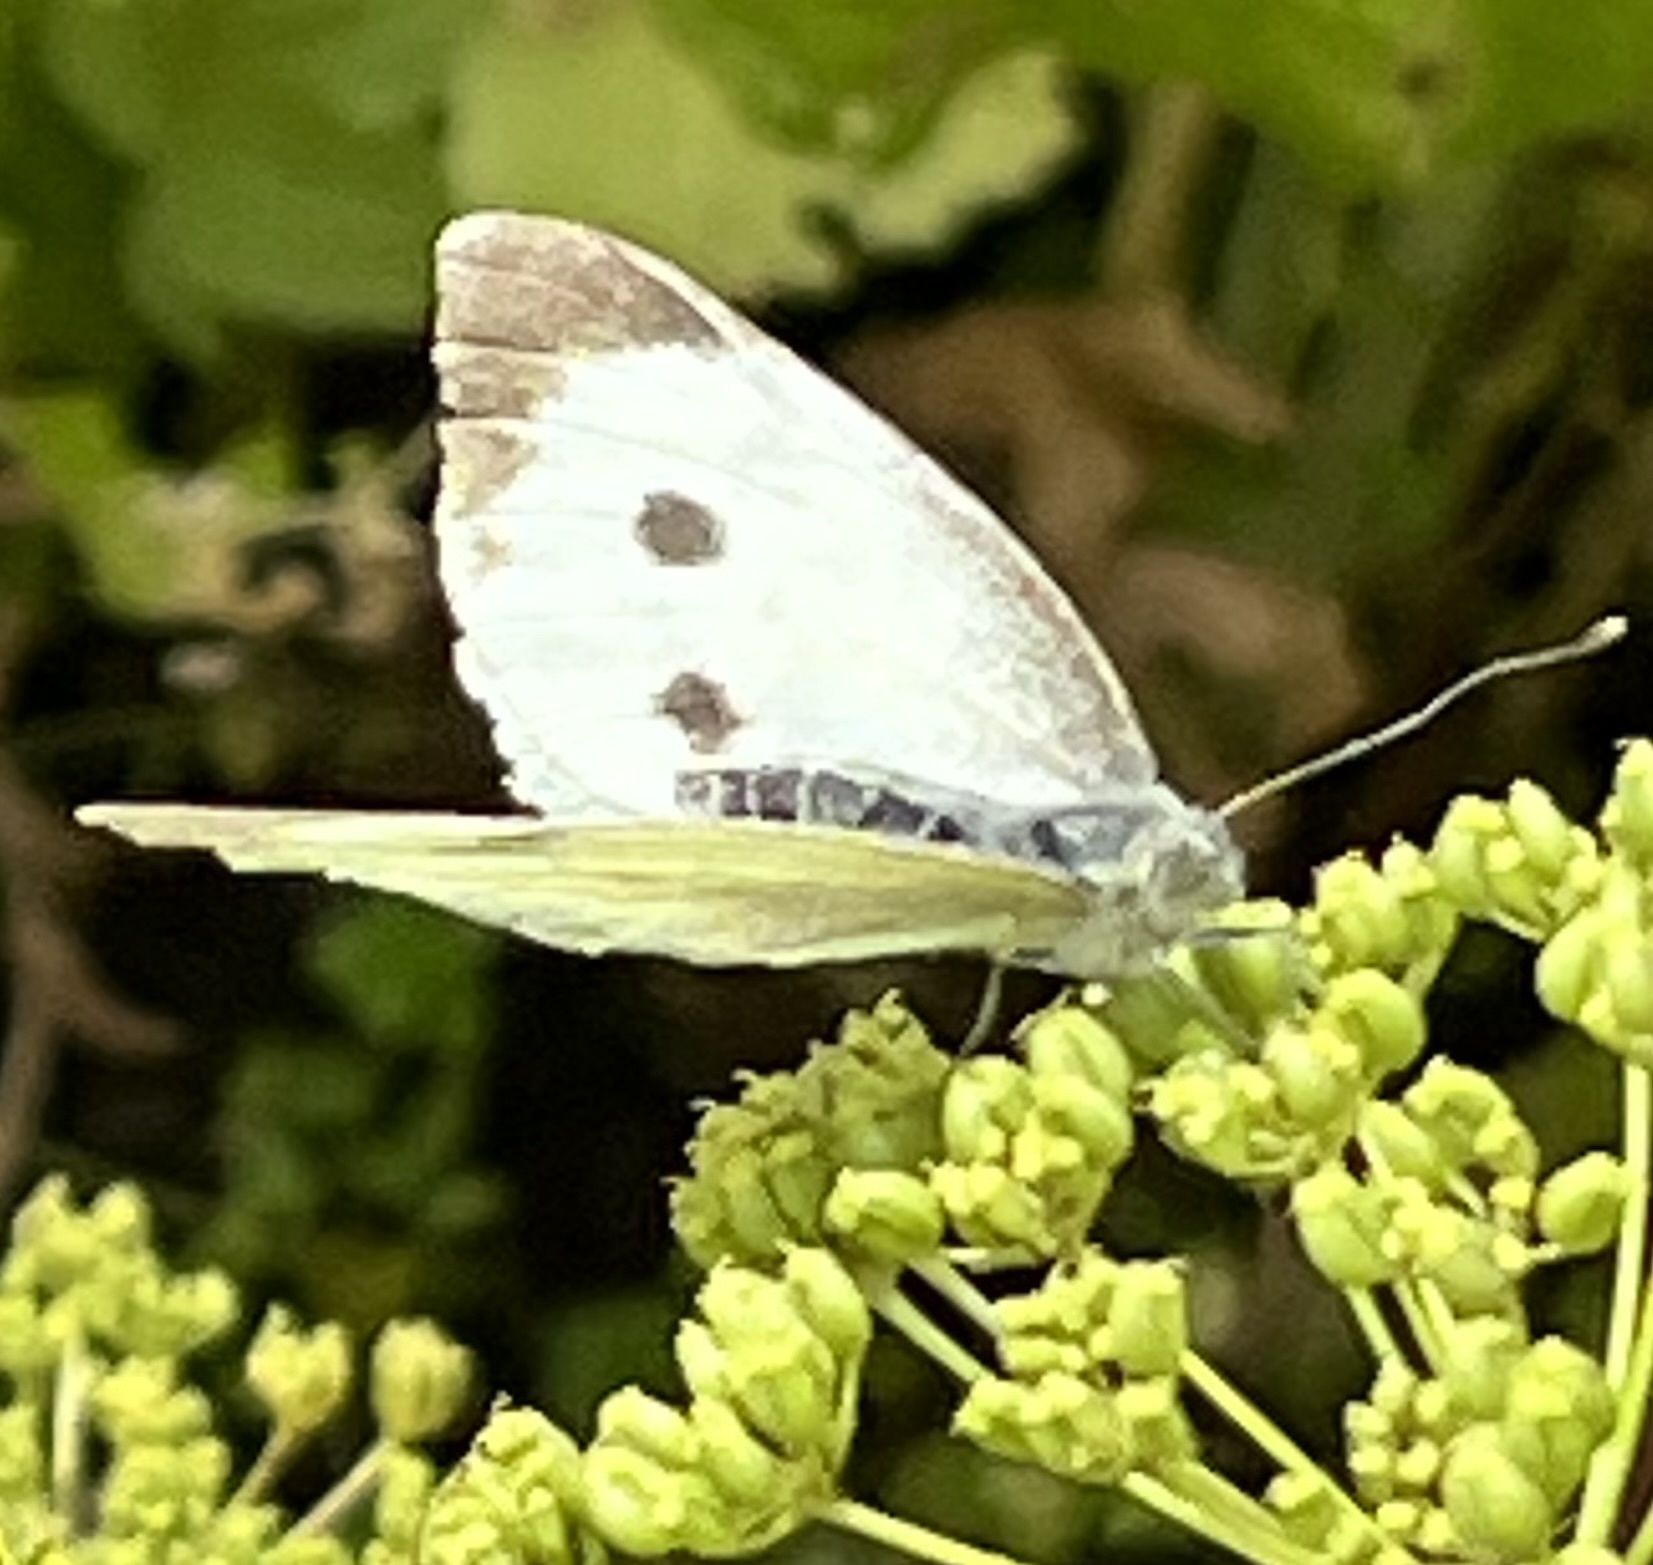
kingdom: Animalia
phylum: Arthropoda
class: Insecta
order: Lepidoptera
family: Pieridae
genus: Pieris
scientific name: Pieris brassicae
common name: Large white
